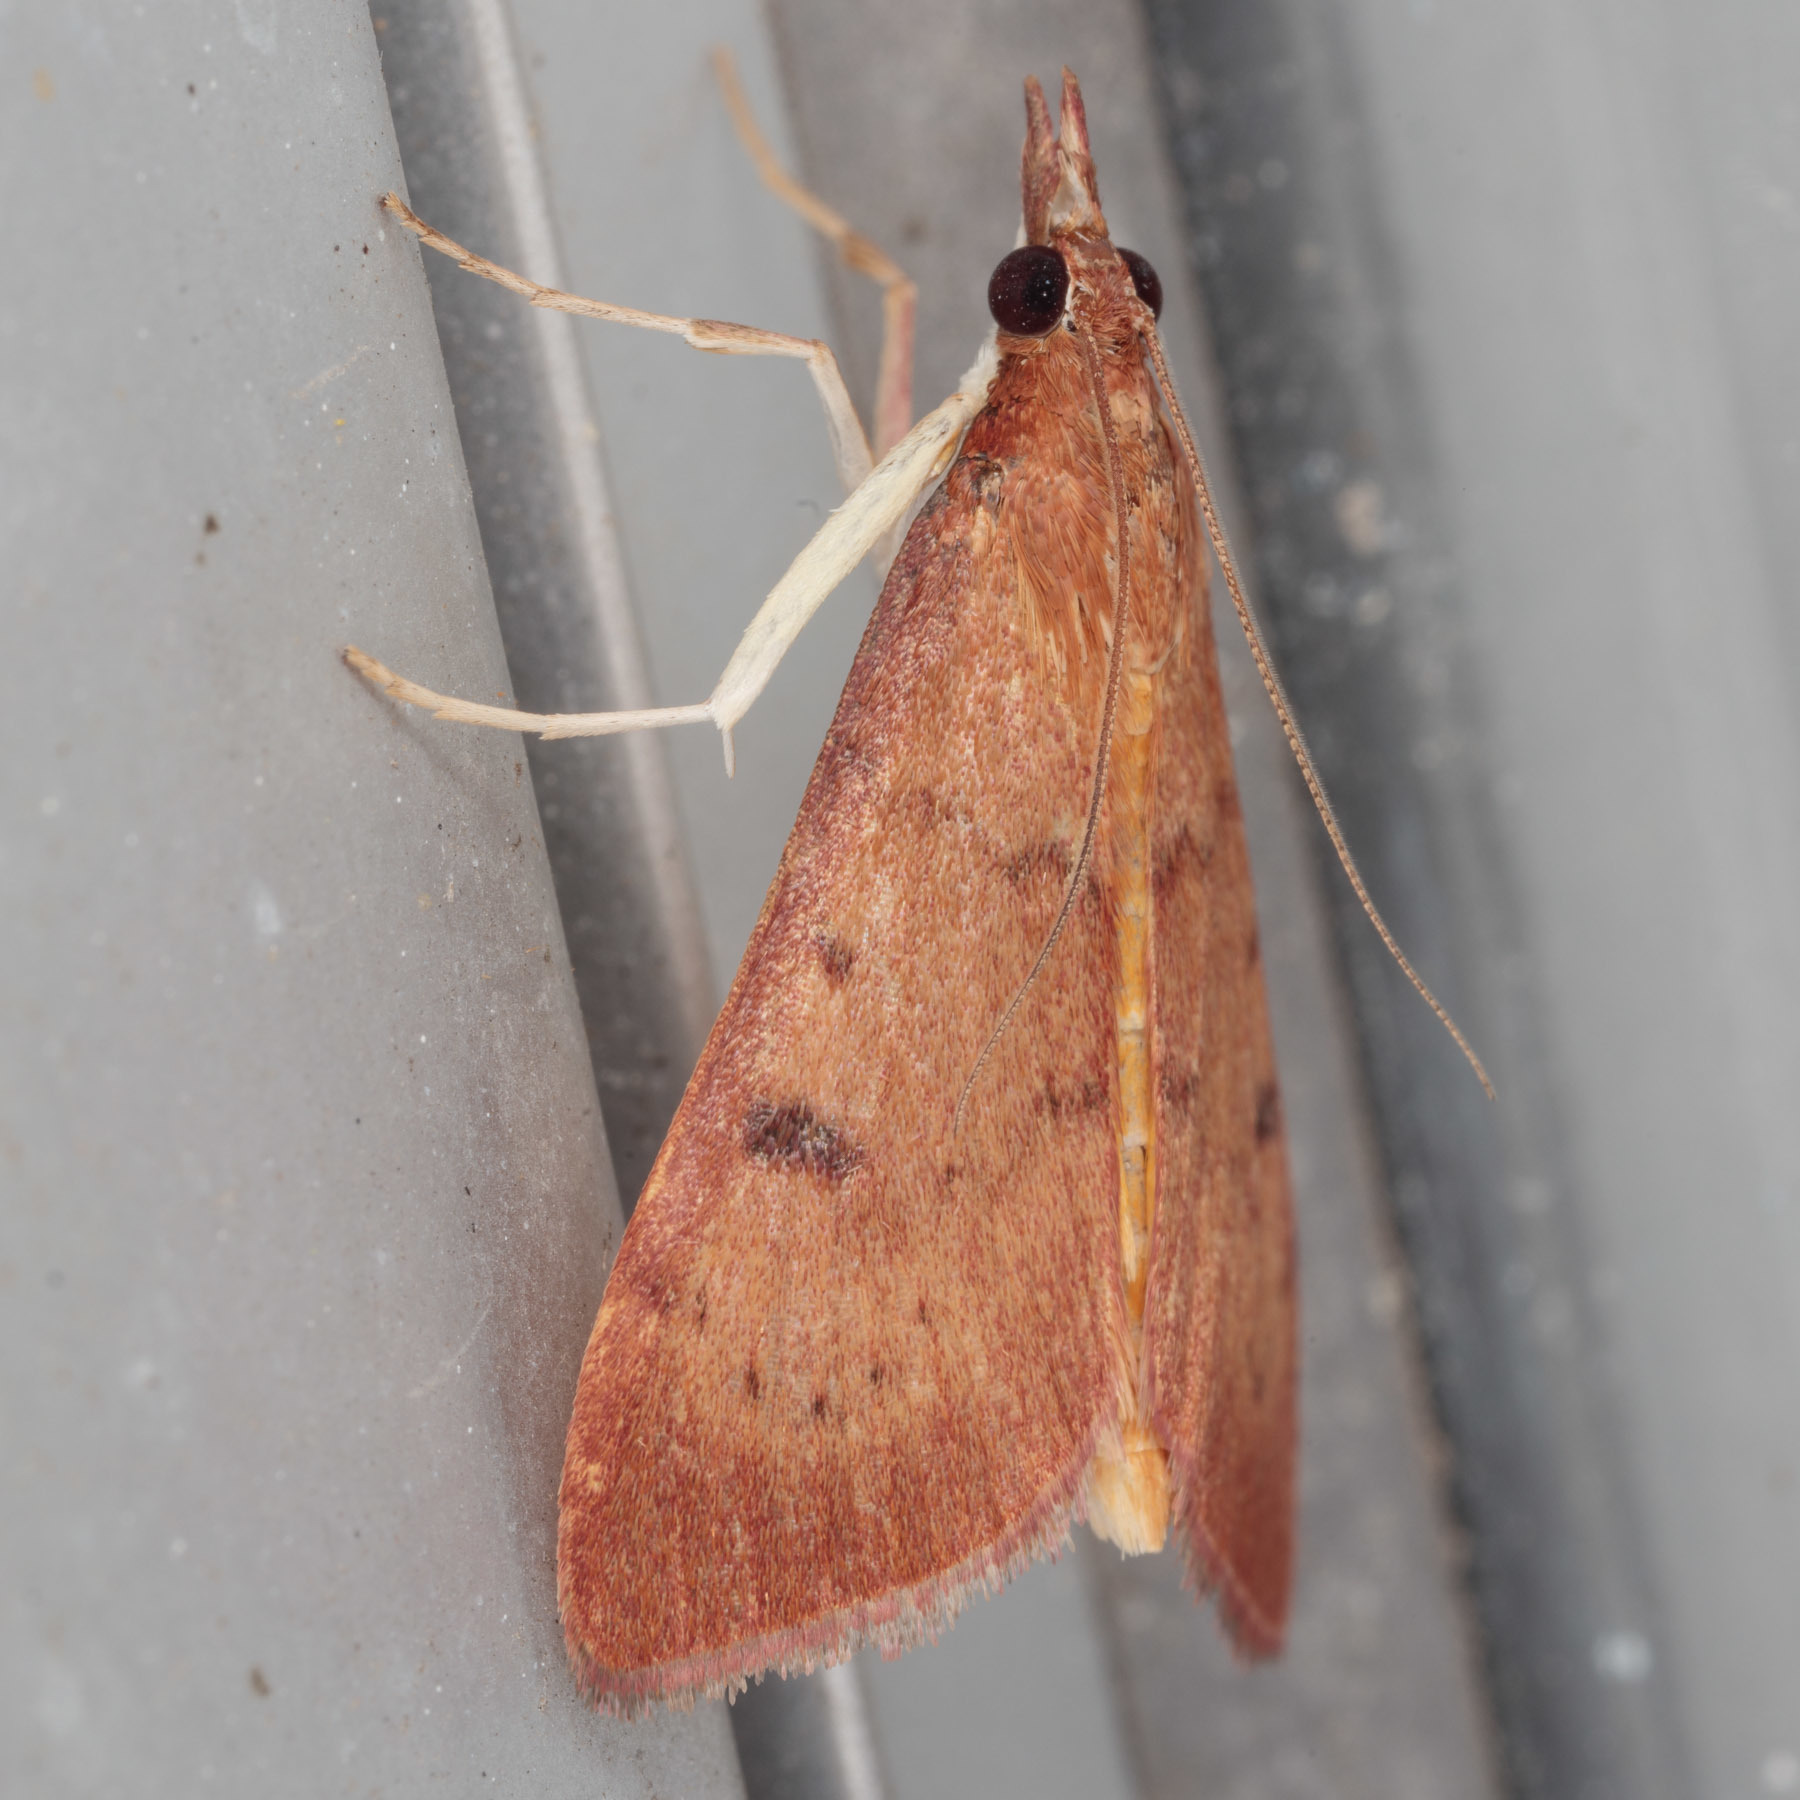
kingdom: Animalia
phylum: Arthropoda
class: Insecta
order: Lepidoptera
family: Crambidae
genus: Uresiphita
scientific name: Uresiphita reversalis
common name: Genista broom moth
